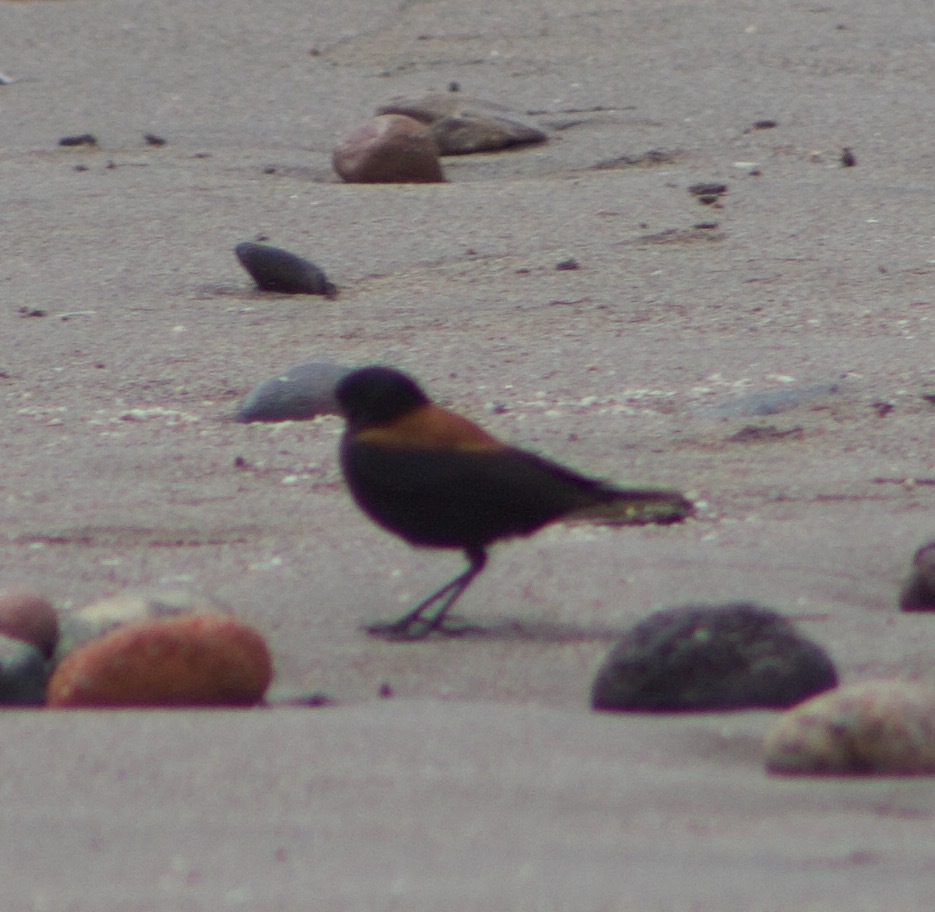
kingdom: Animalia
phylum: Chordata
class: Aves
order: Passeriformes
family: Tyrannidae
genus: Lessonia
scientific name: Lessonia rufa
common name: Austral negrito
